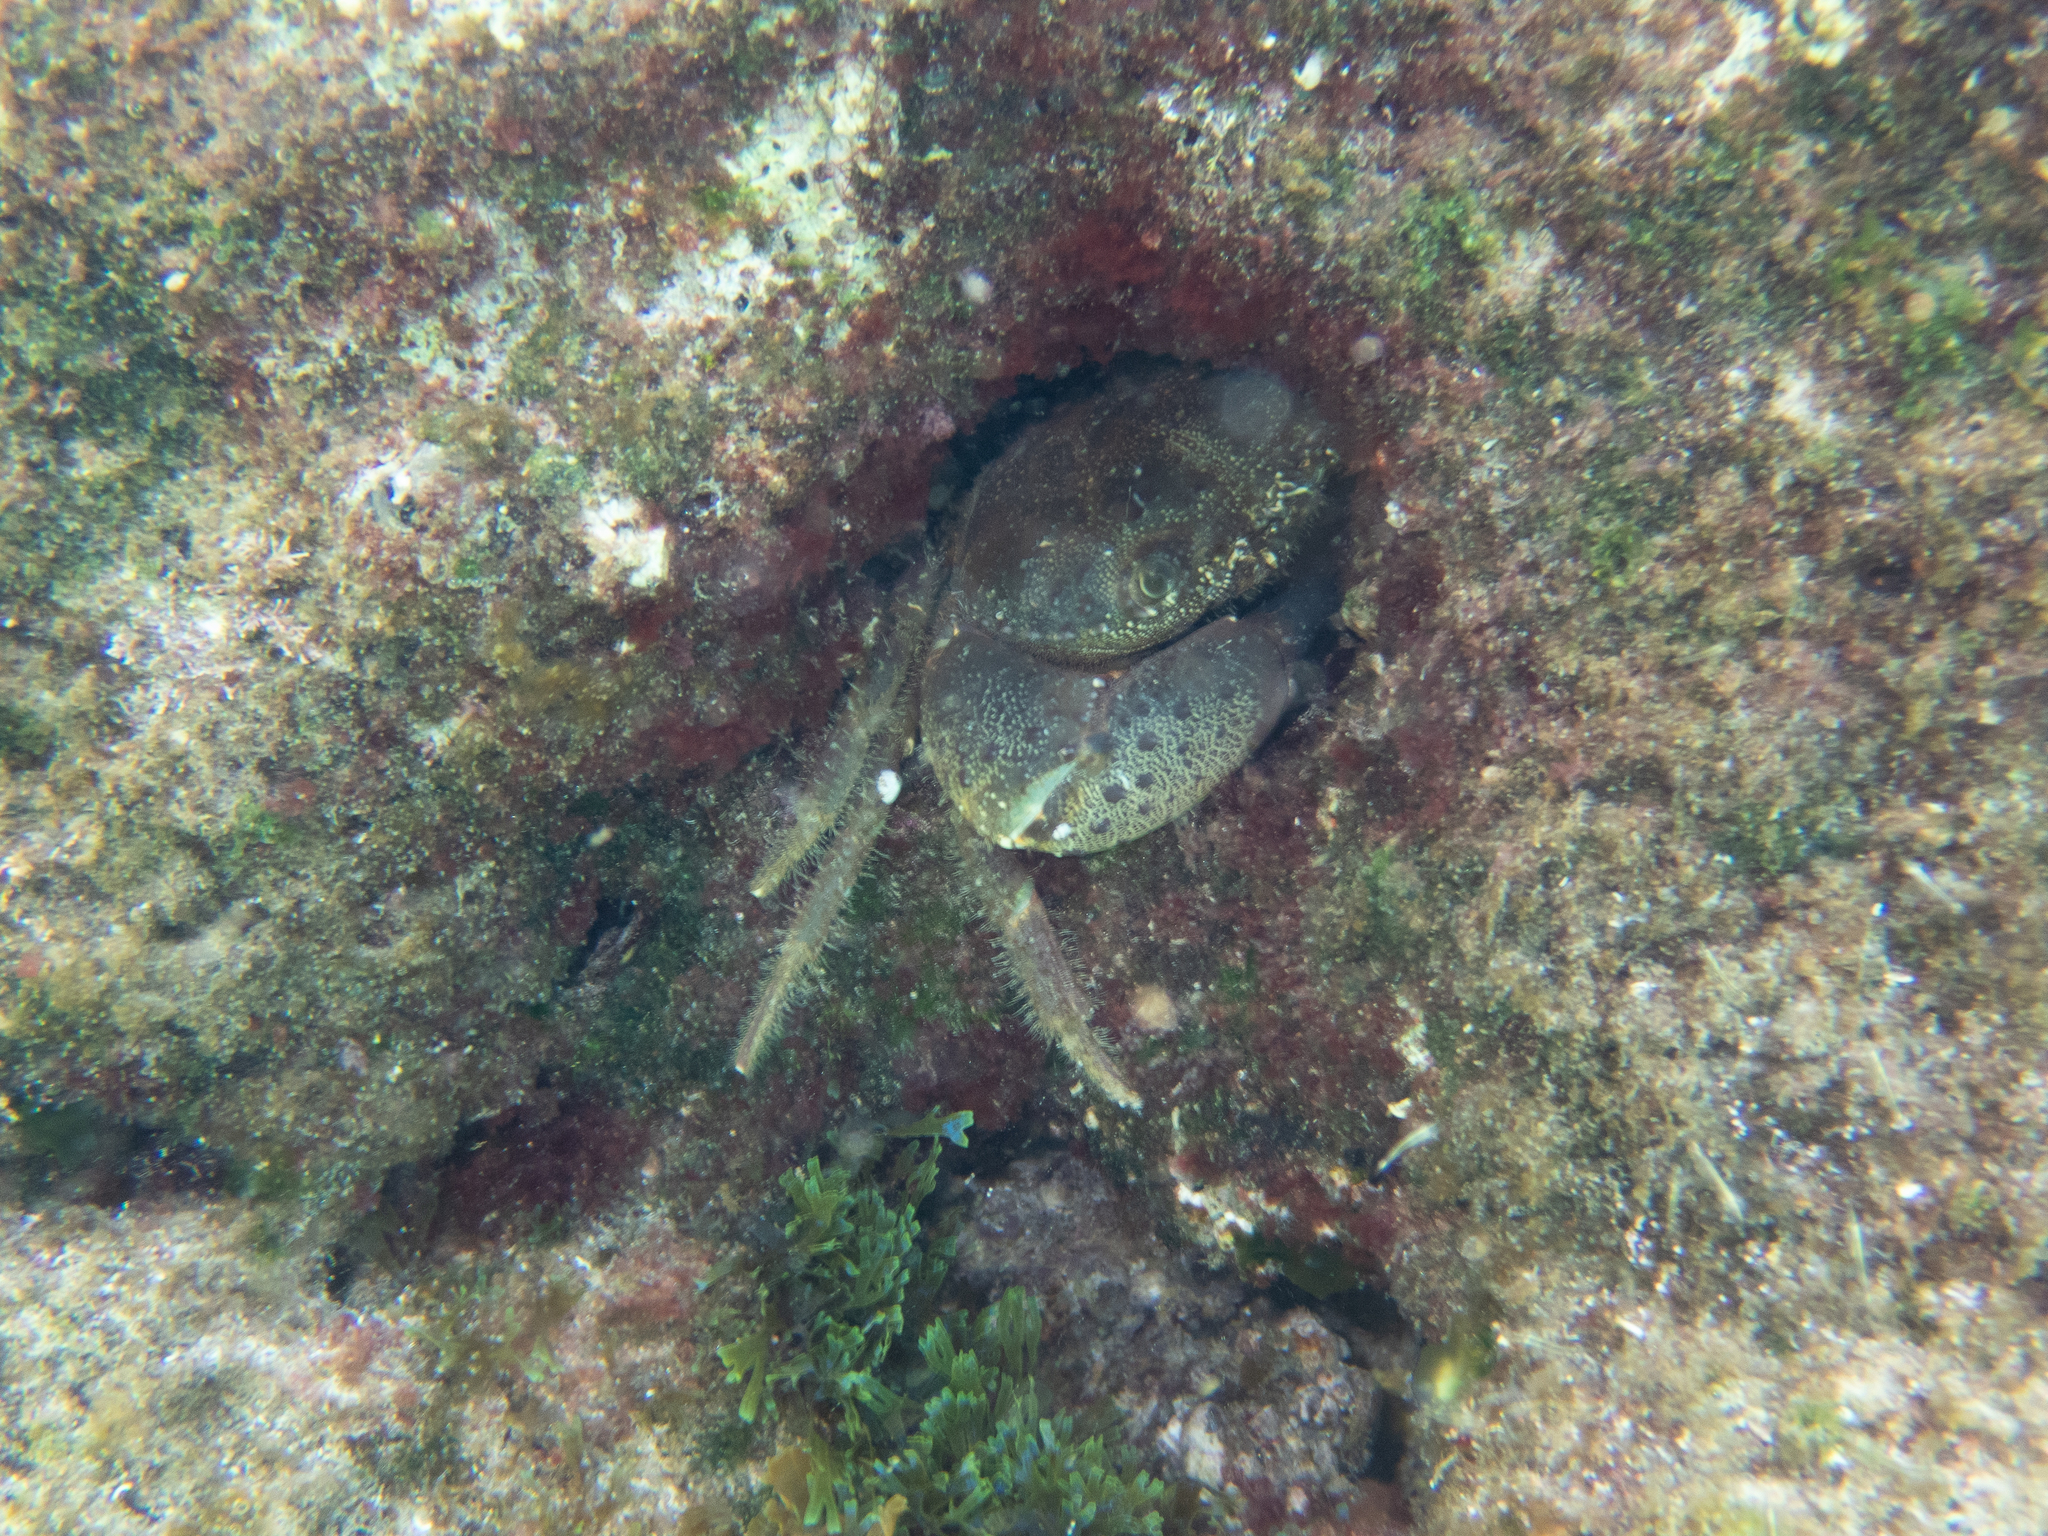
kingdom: Animalia
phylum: Arthropoda
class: Malacostraca
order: Decapoda
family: Eriphiidae
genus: Eriphia
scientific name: Eriphia verrucosa
